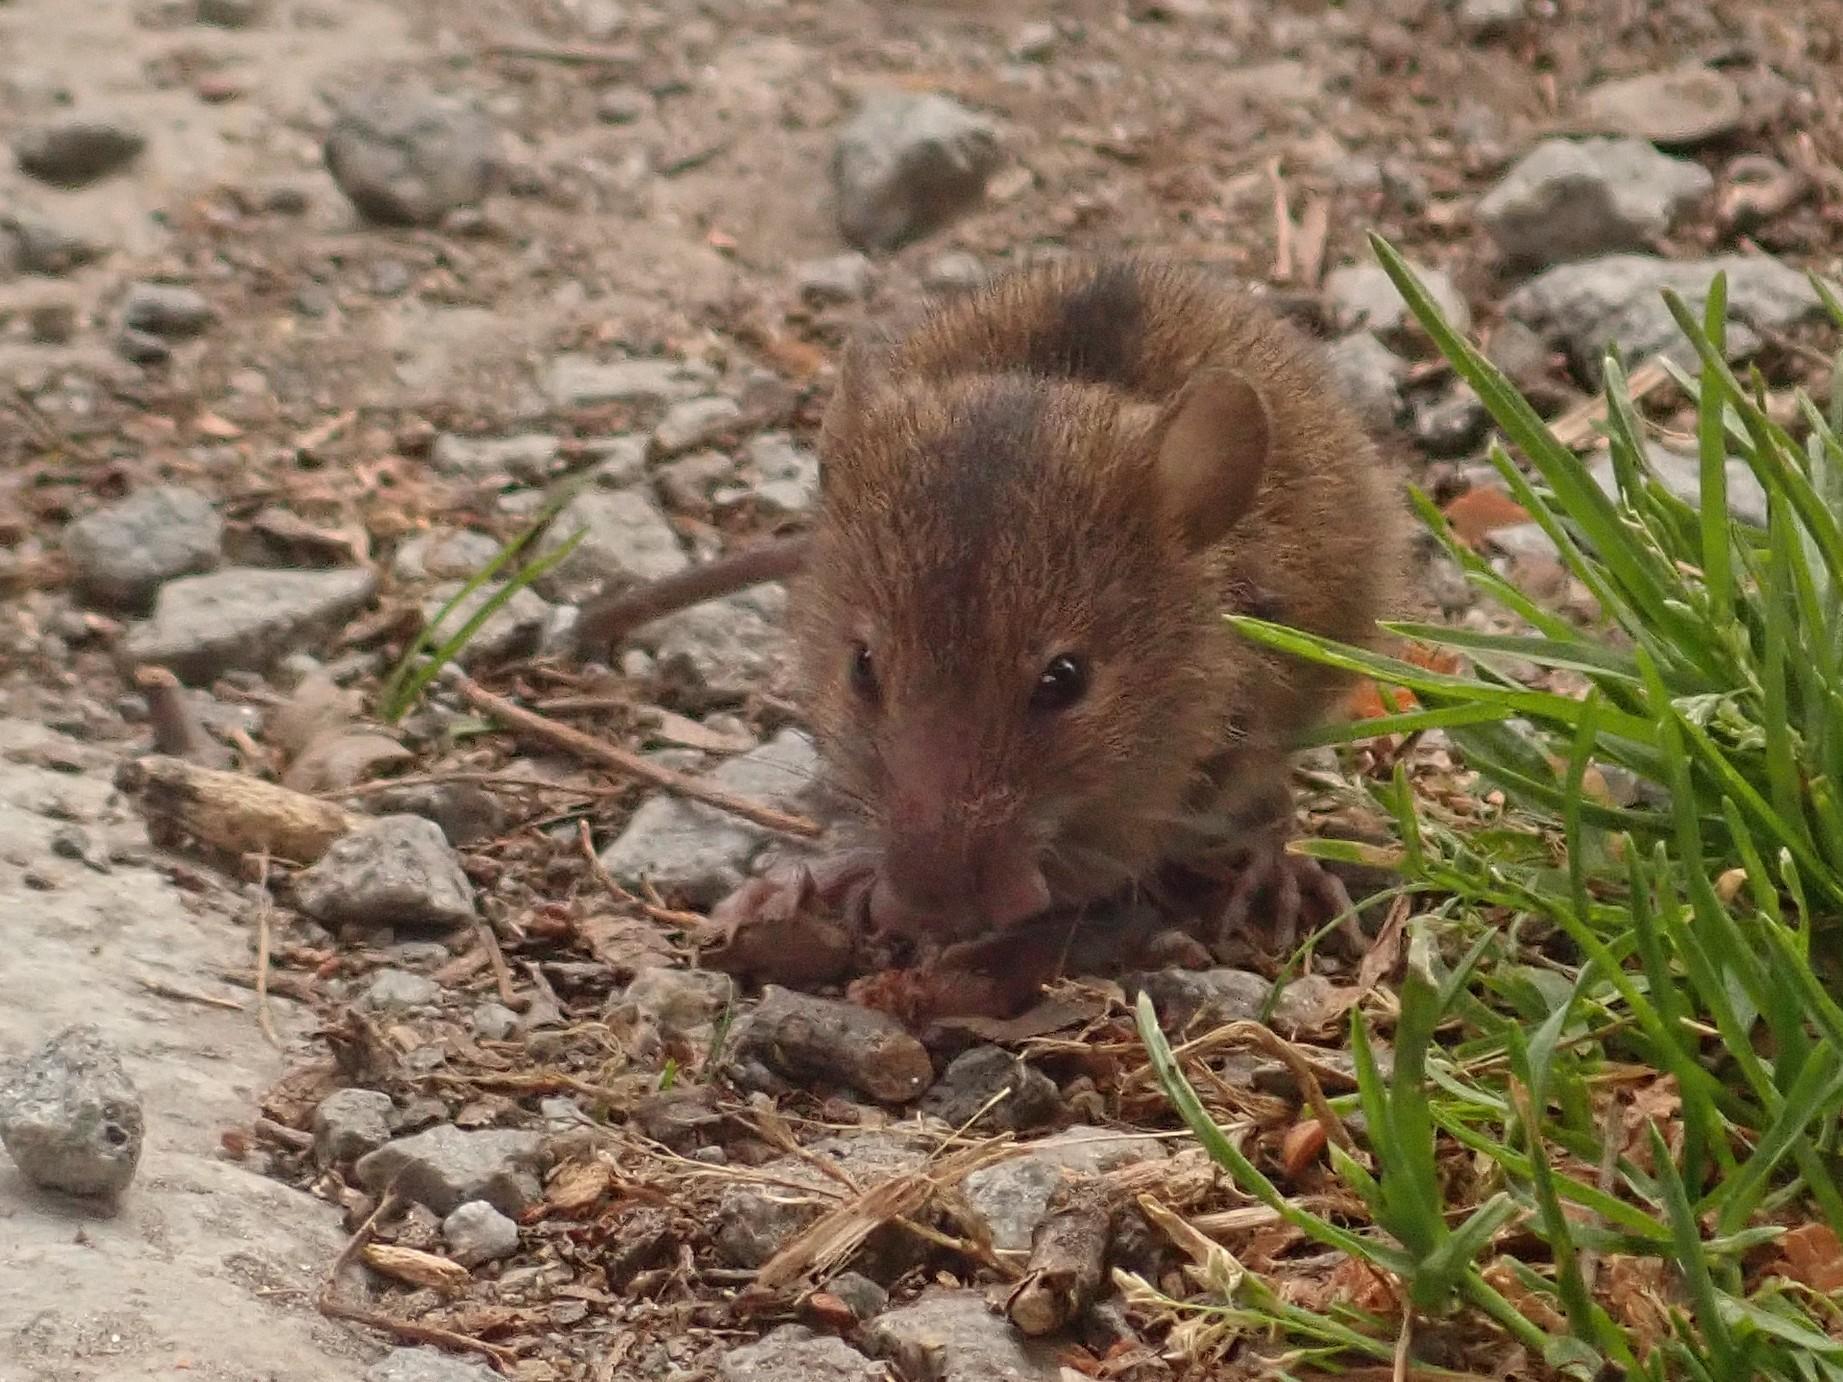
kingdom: Animalia
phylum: Chordata
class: Mammalia
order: Rodentia
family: Muridae
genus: Apodemus
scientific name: Apodemus agrarius
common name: Striped field mouse
